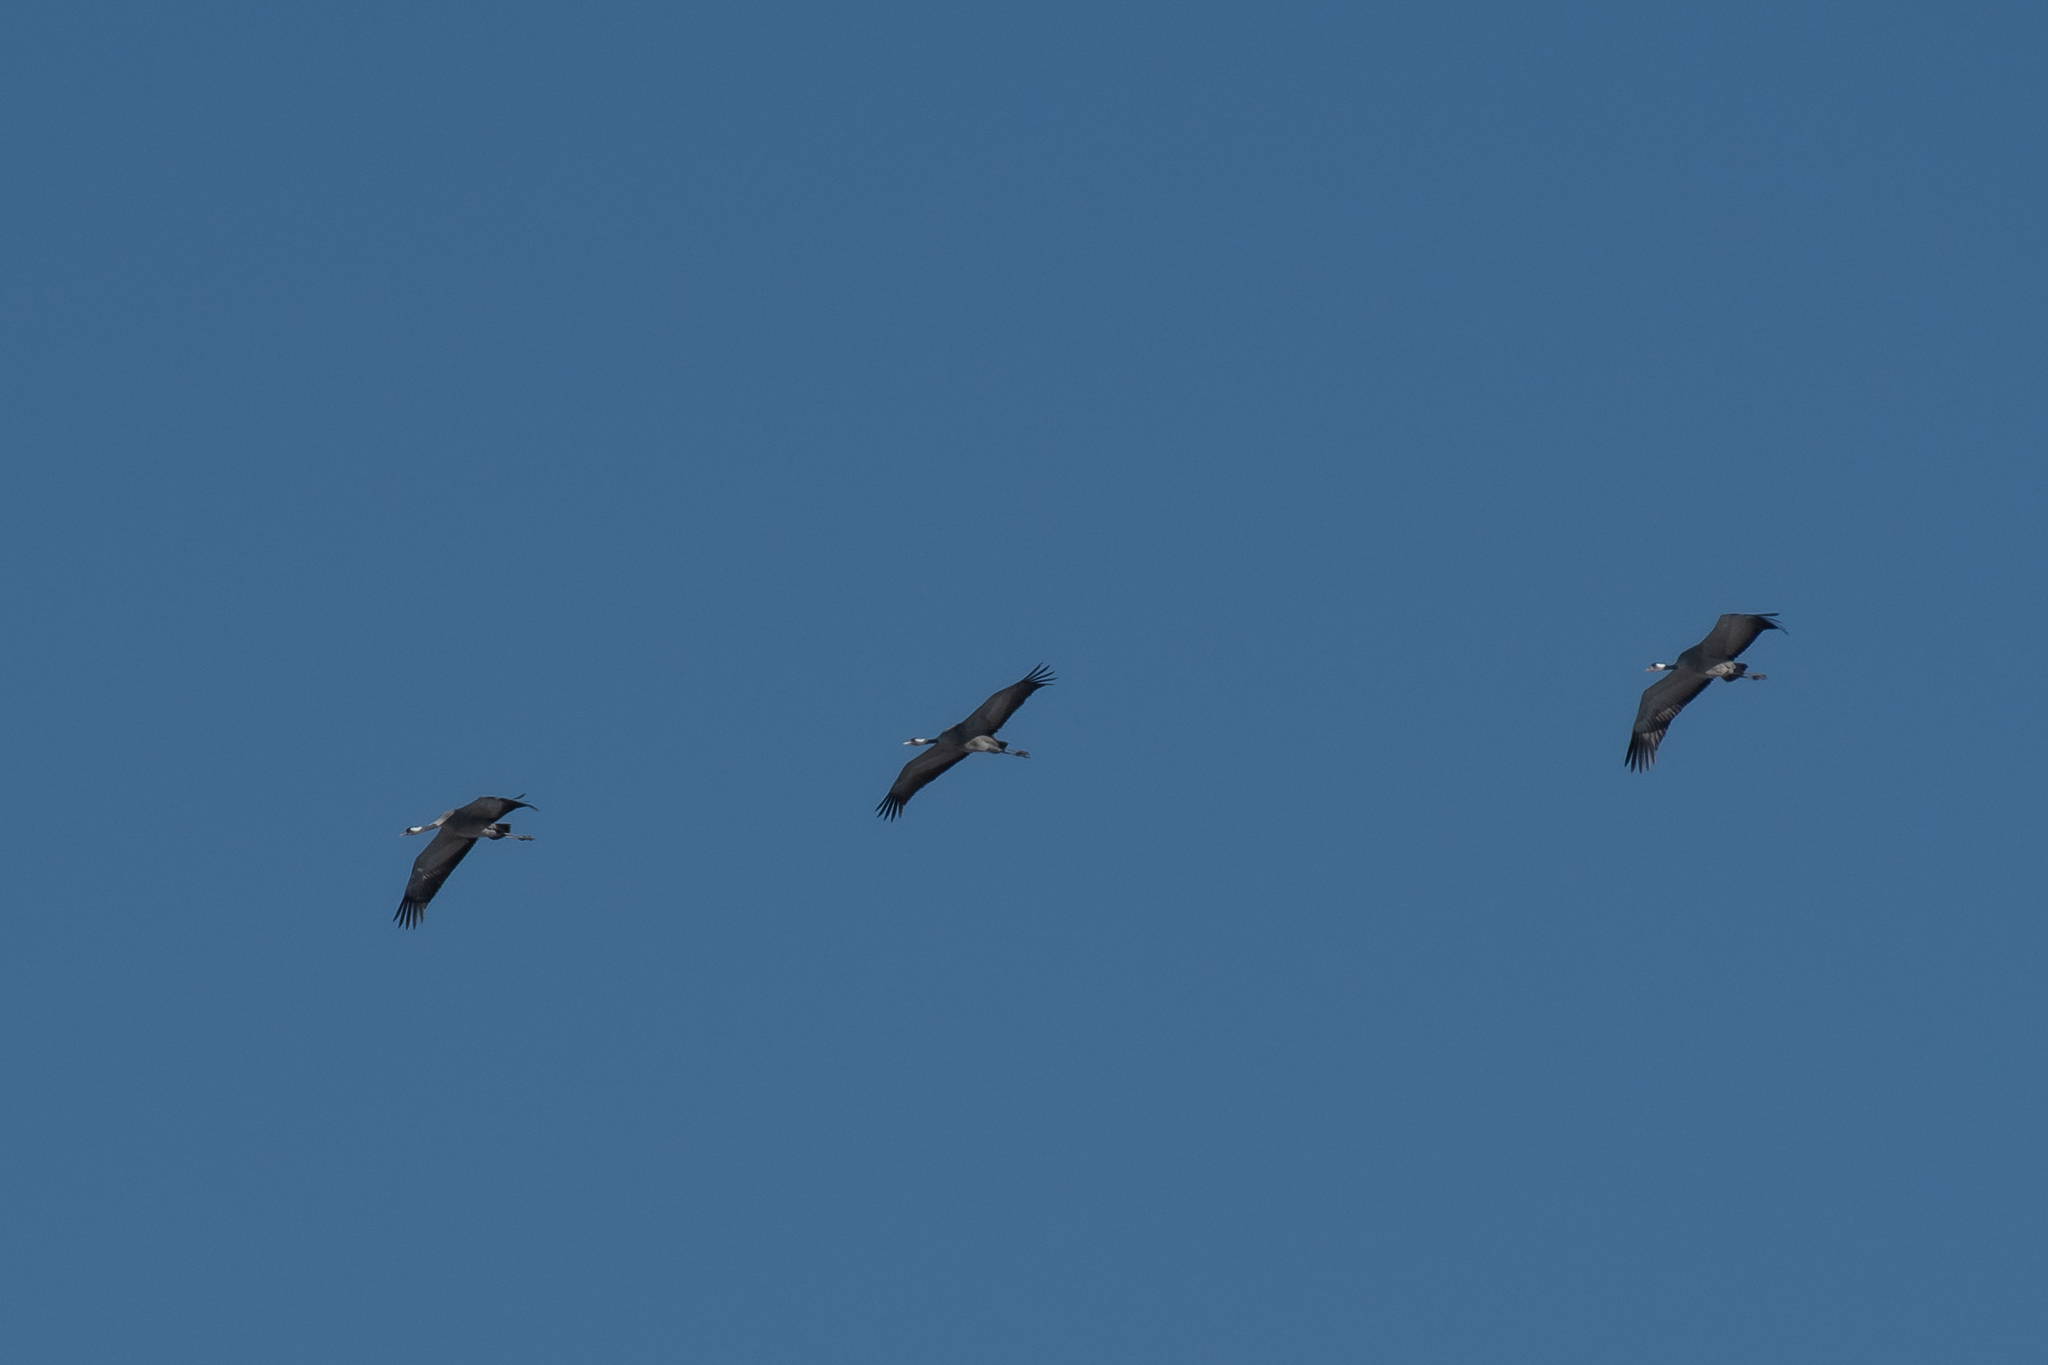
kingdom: Animalia
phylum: Chordata
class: Aves
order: Gruiformes
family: Gruidae
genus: Grus
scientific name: Grus grus
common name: Common crane
